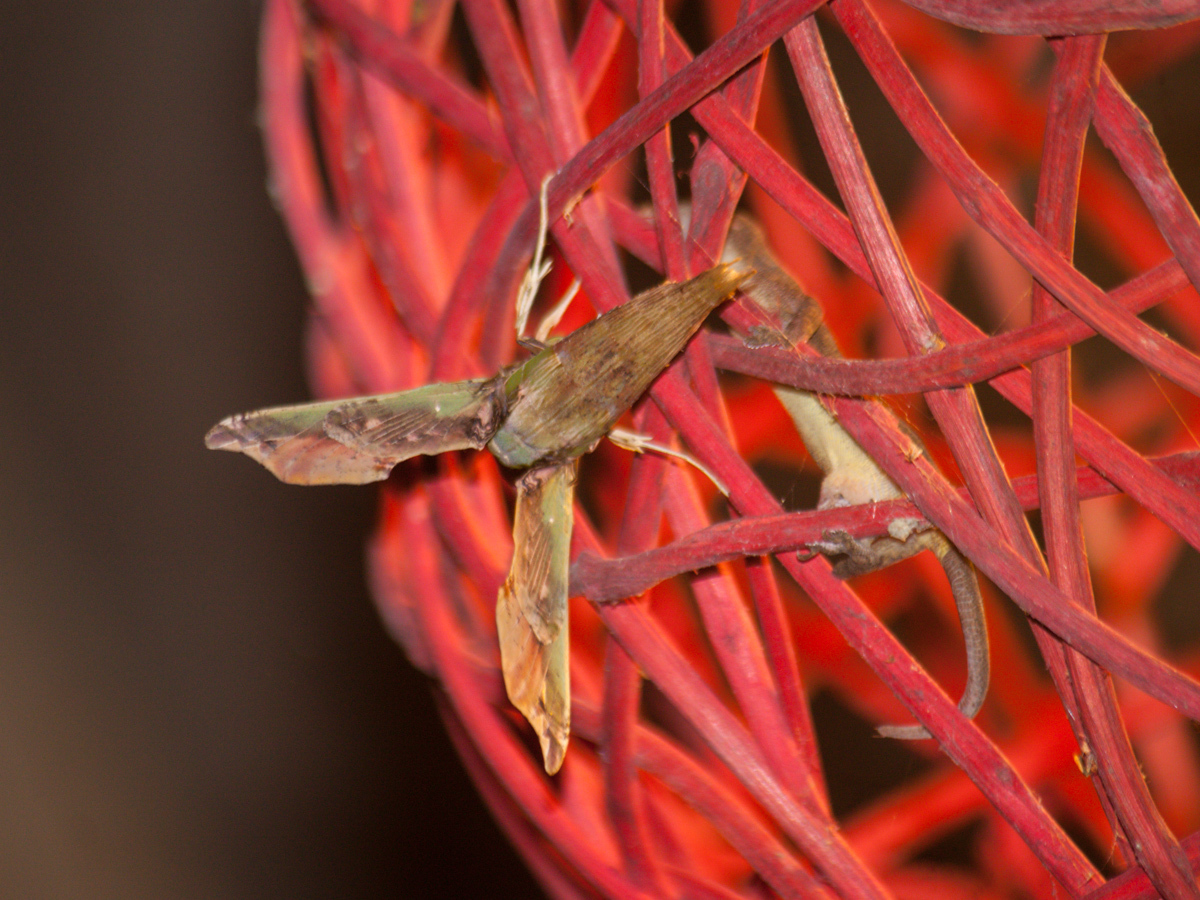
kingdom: Animalia
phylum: Arthropoda
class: Insecta
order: Lepidoptera
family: Sphingidae
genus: Eupanacra
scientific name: Eupanacra busiris
